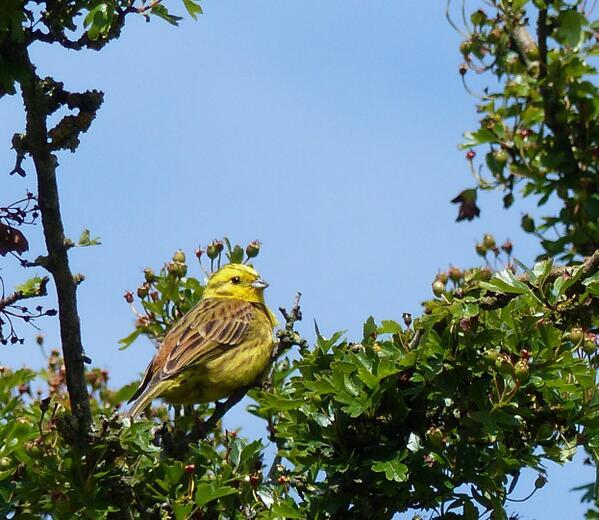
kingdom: Animalia
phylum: Chordata
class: Aves
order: Passeriformes
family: Emberizidae
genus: Emberiza
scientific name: Emberiza citrinella
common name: Yellowhammer
